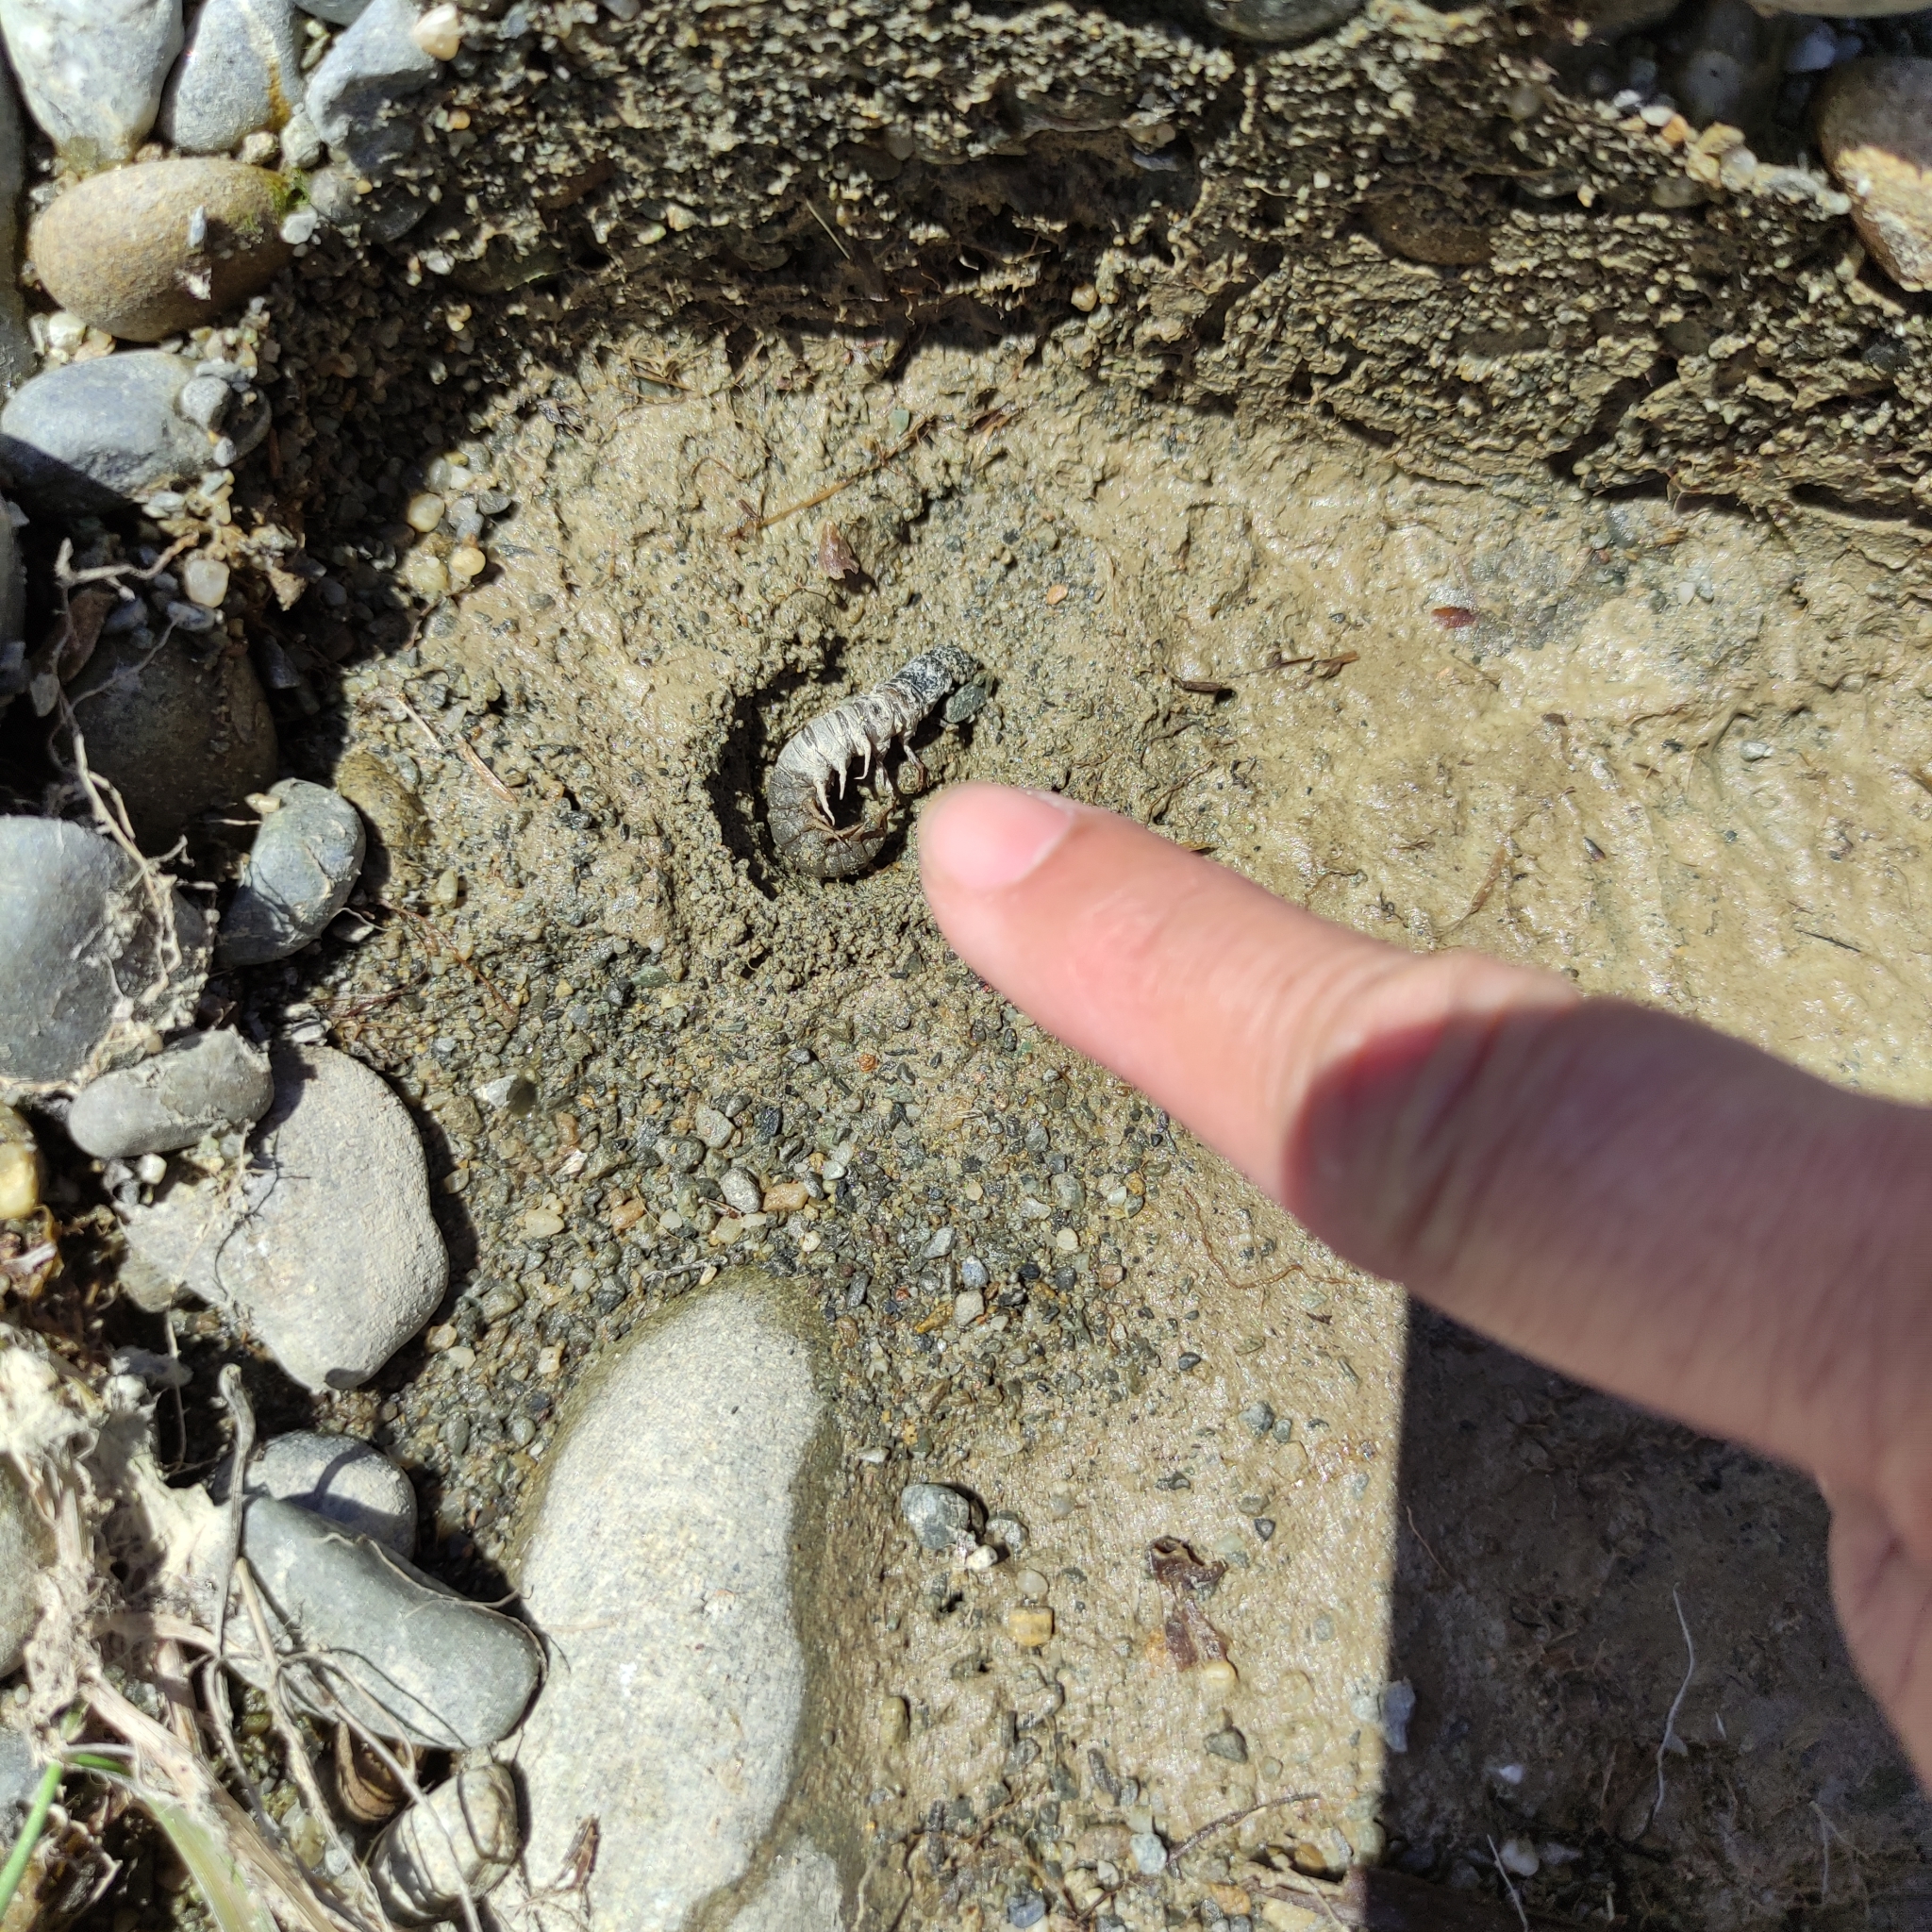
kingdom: Animalia
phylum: Arthropoda
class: Insecta
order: Megaloptera
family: Corydalidae
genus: Archichauliodes
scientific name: Archichauliodes diversus
